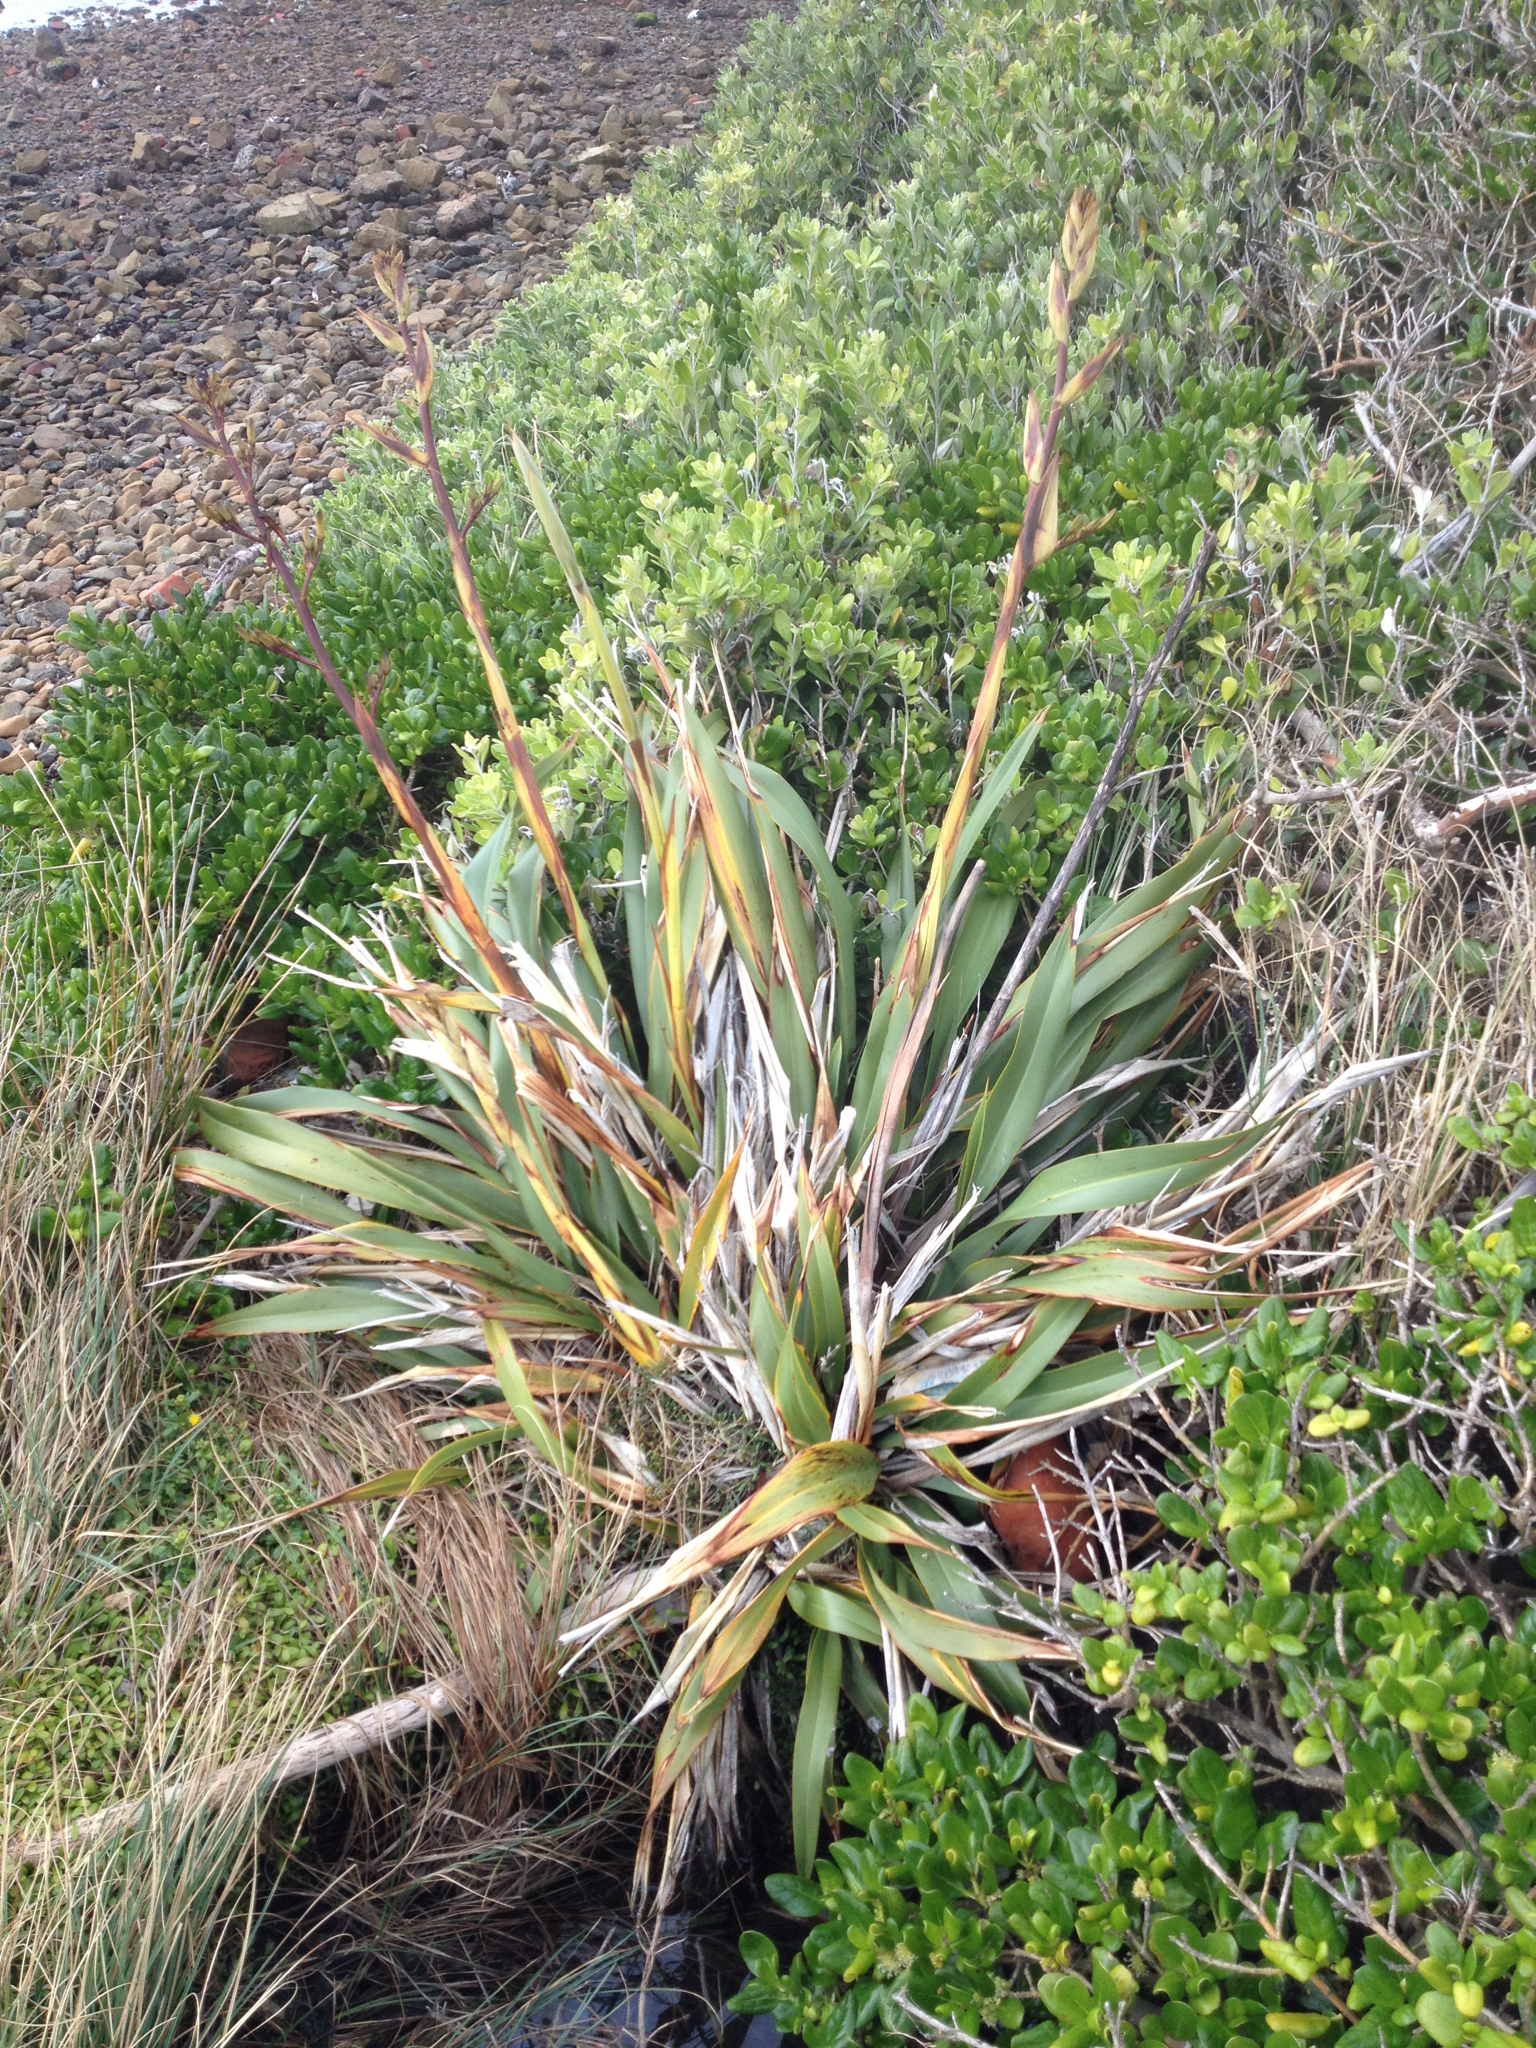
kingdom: Plantae
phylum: Tracheophyta
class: Liliopsida
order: Asparagales
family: Asphodelaceae
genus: Phormium
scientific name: Phormium colensoi
